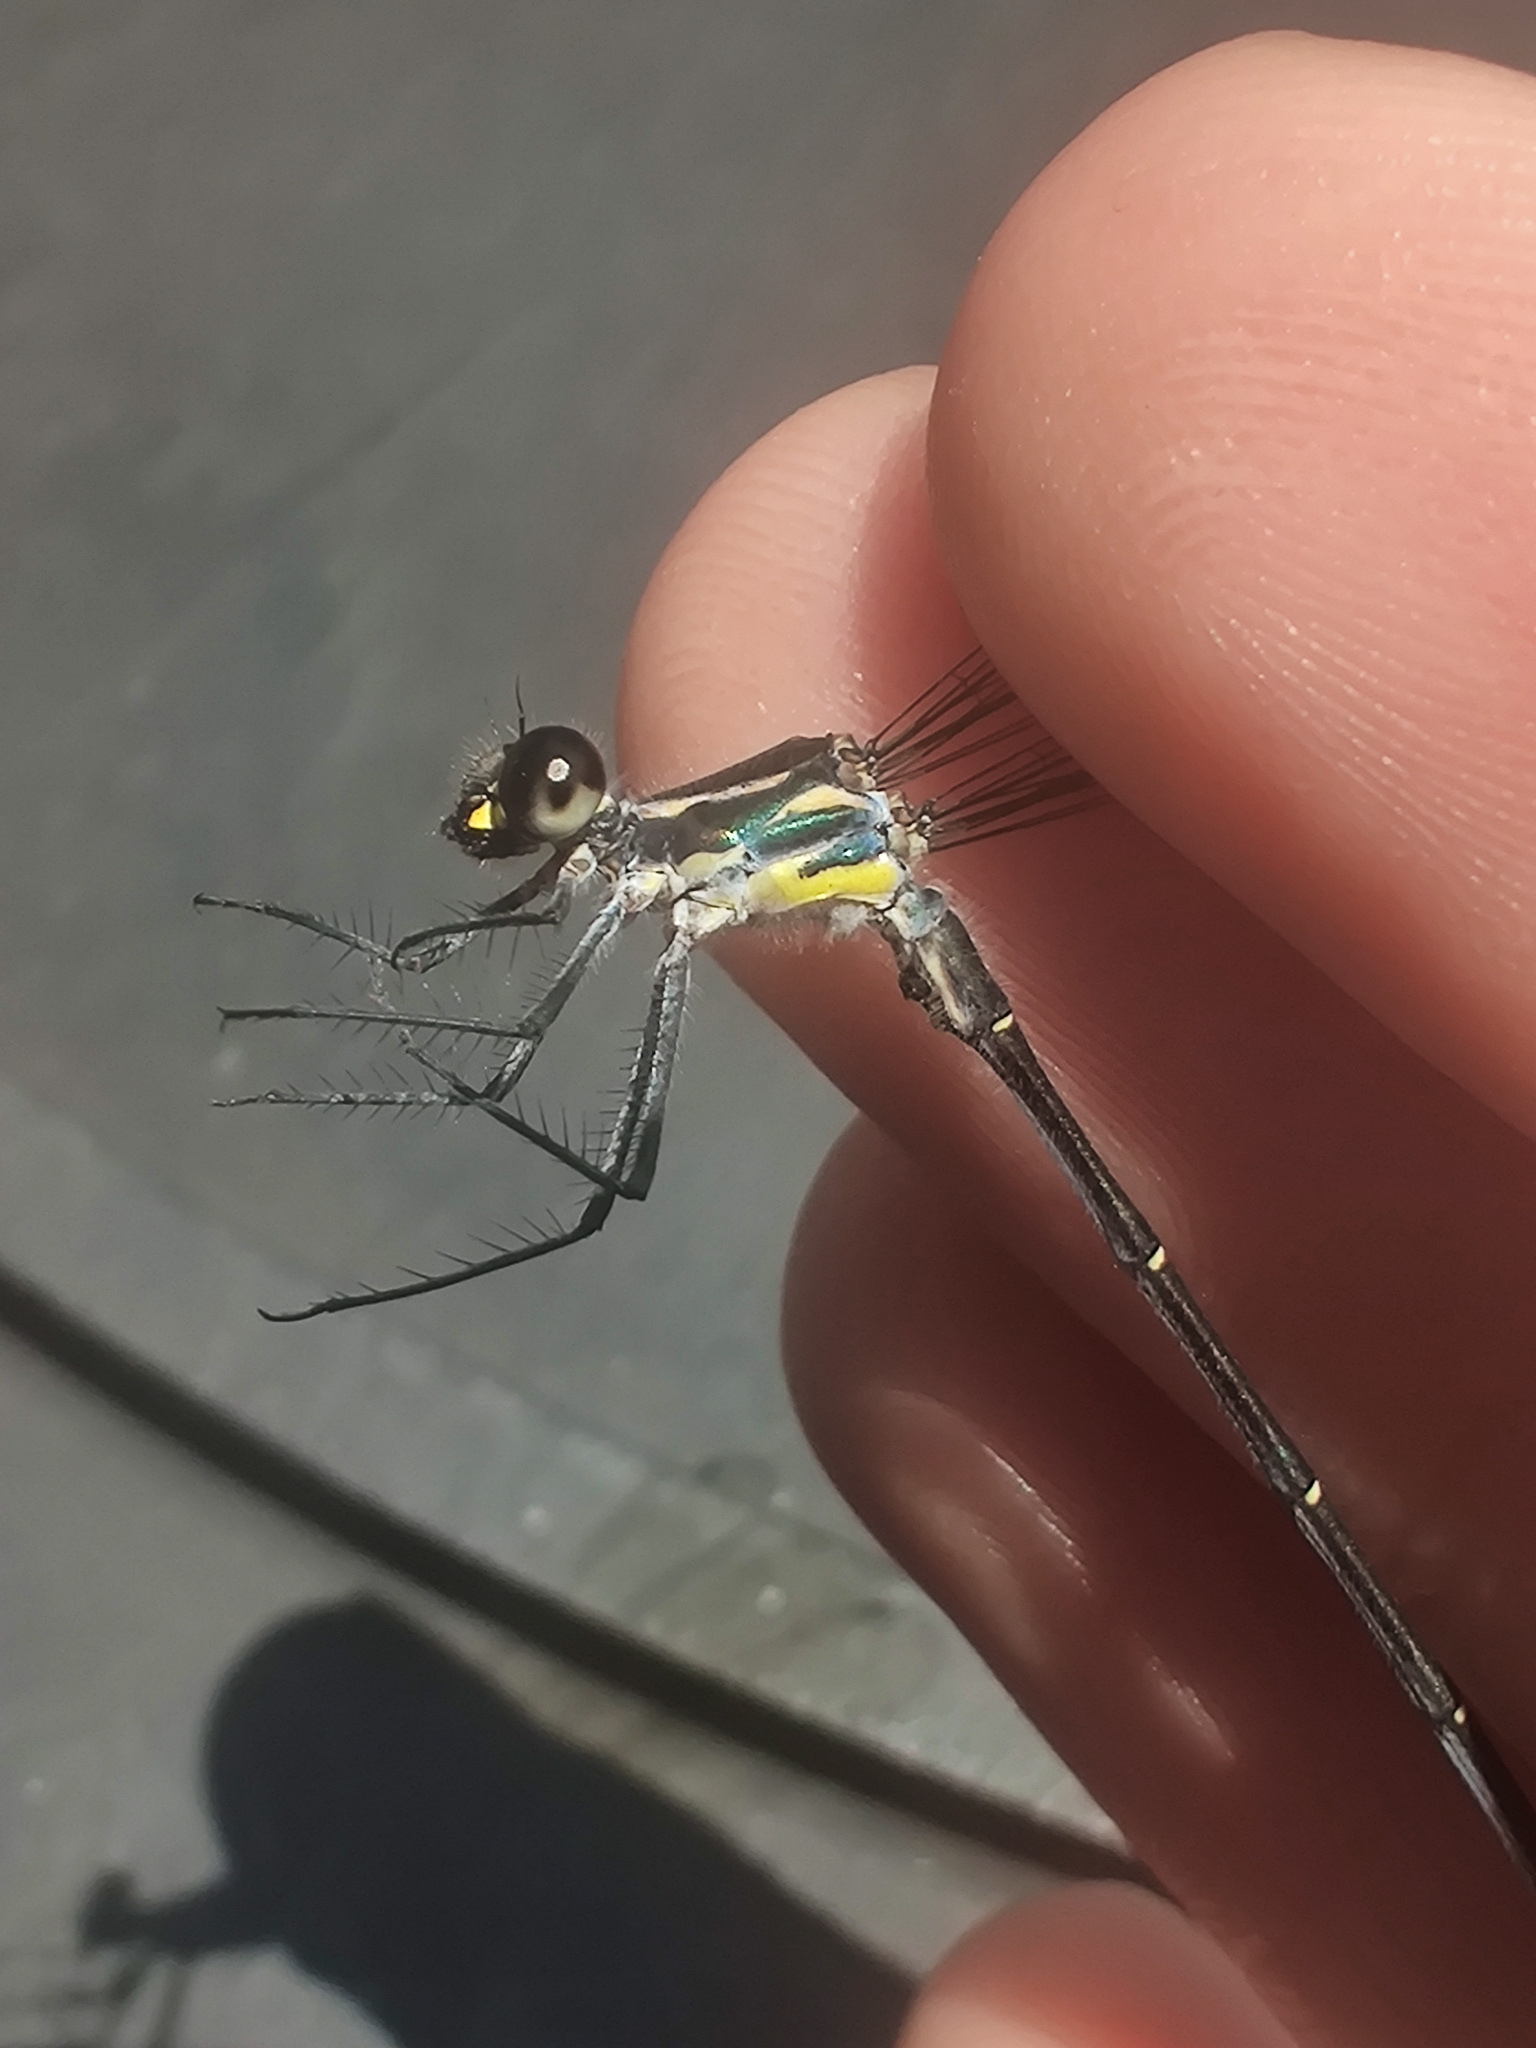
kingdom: Animalia
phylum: Arthropoda
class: Insecta
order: Odonata
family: Argiolestidae
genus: Austroargiolestes
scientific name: Austroargiolestes icteromelas
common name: Common flatwing
